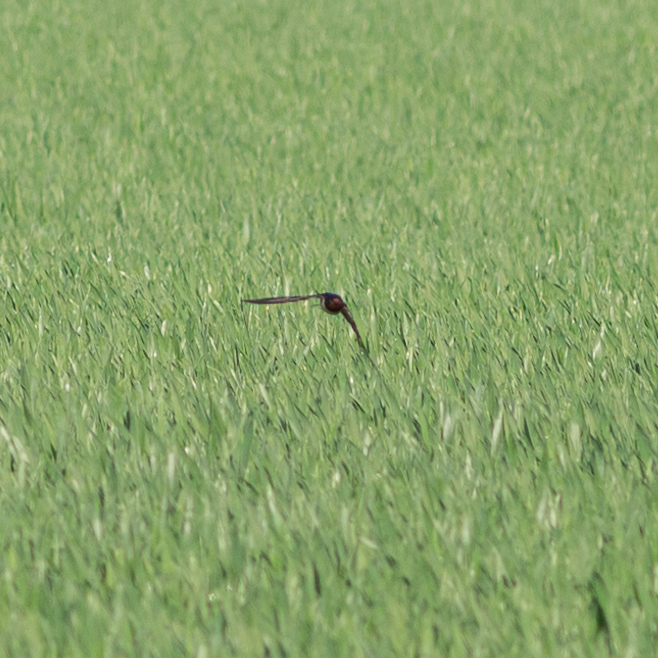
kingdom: Animalia
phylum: Chordata
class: Aves
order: Passeriformes
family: Hirundinidae
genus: Hirundo
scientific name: Hirundo rustica
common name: Barn swallow
